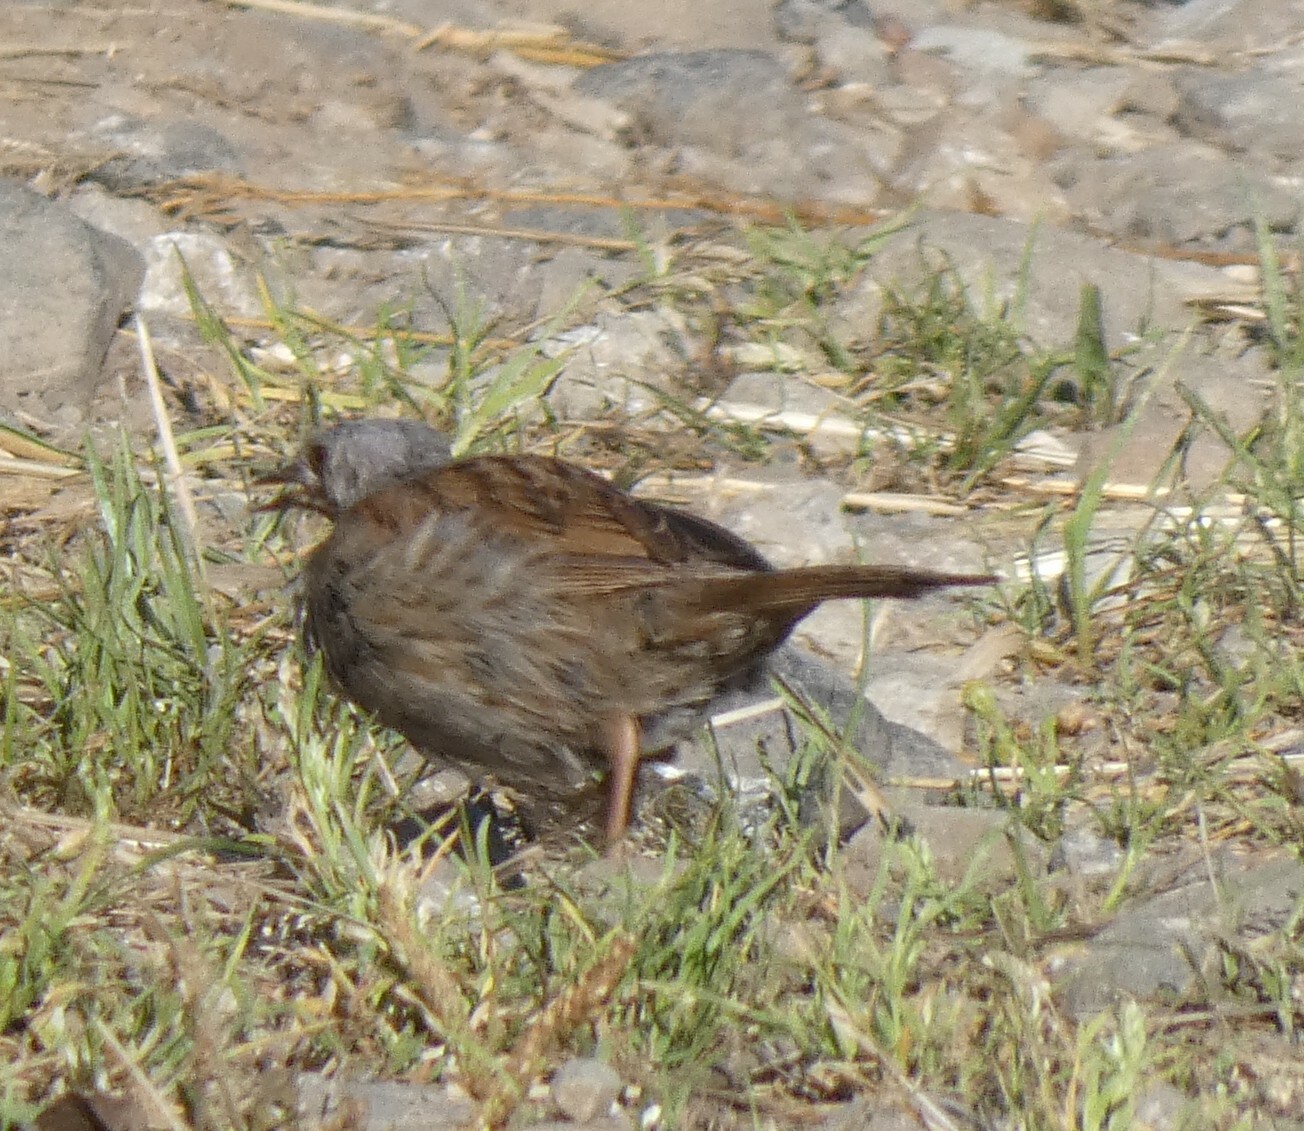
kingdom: Animalia
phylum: Chordata
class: Aves
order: Passeriformes
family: Prunellidae
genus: Prunella
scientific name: Prunella modularis
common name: Dunnock
